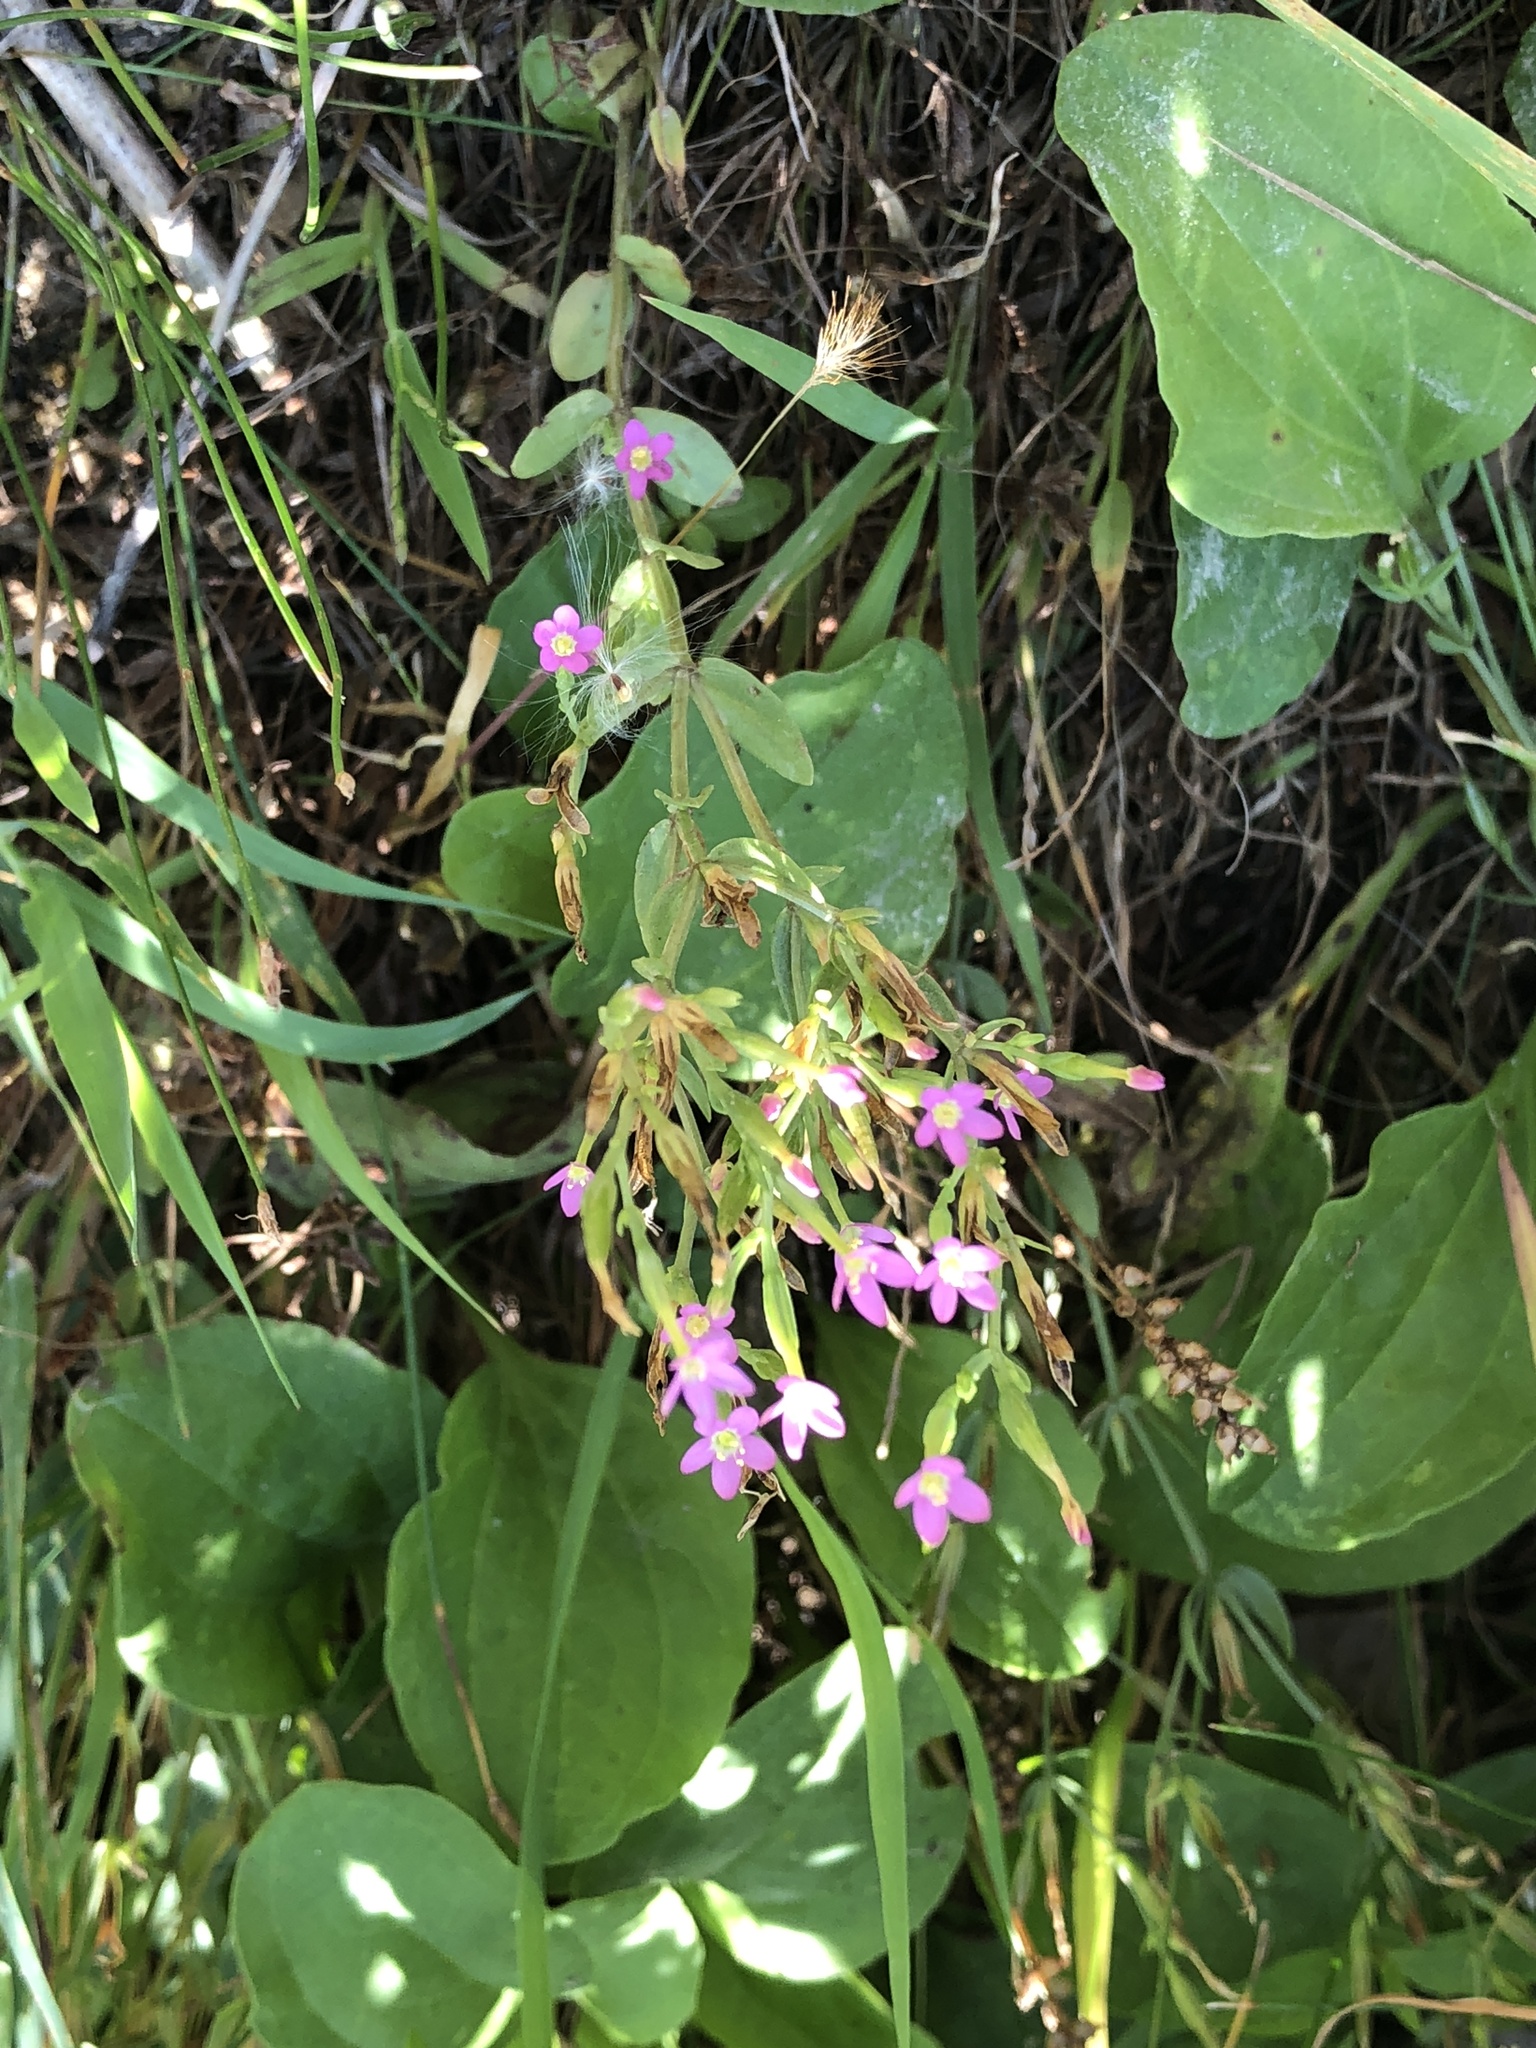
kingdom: Plantae
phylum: Tracheophyta
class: Magnoliopsida
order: Gentianales
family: Gentianaceae
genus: Centaurium
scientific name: Centaurium pulchellum
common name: Lesser centaury
